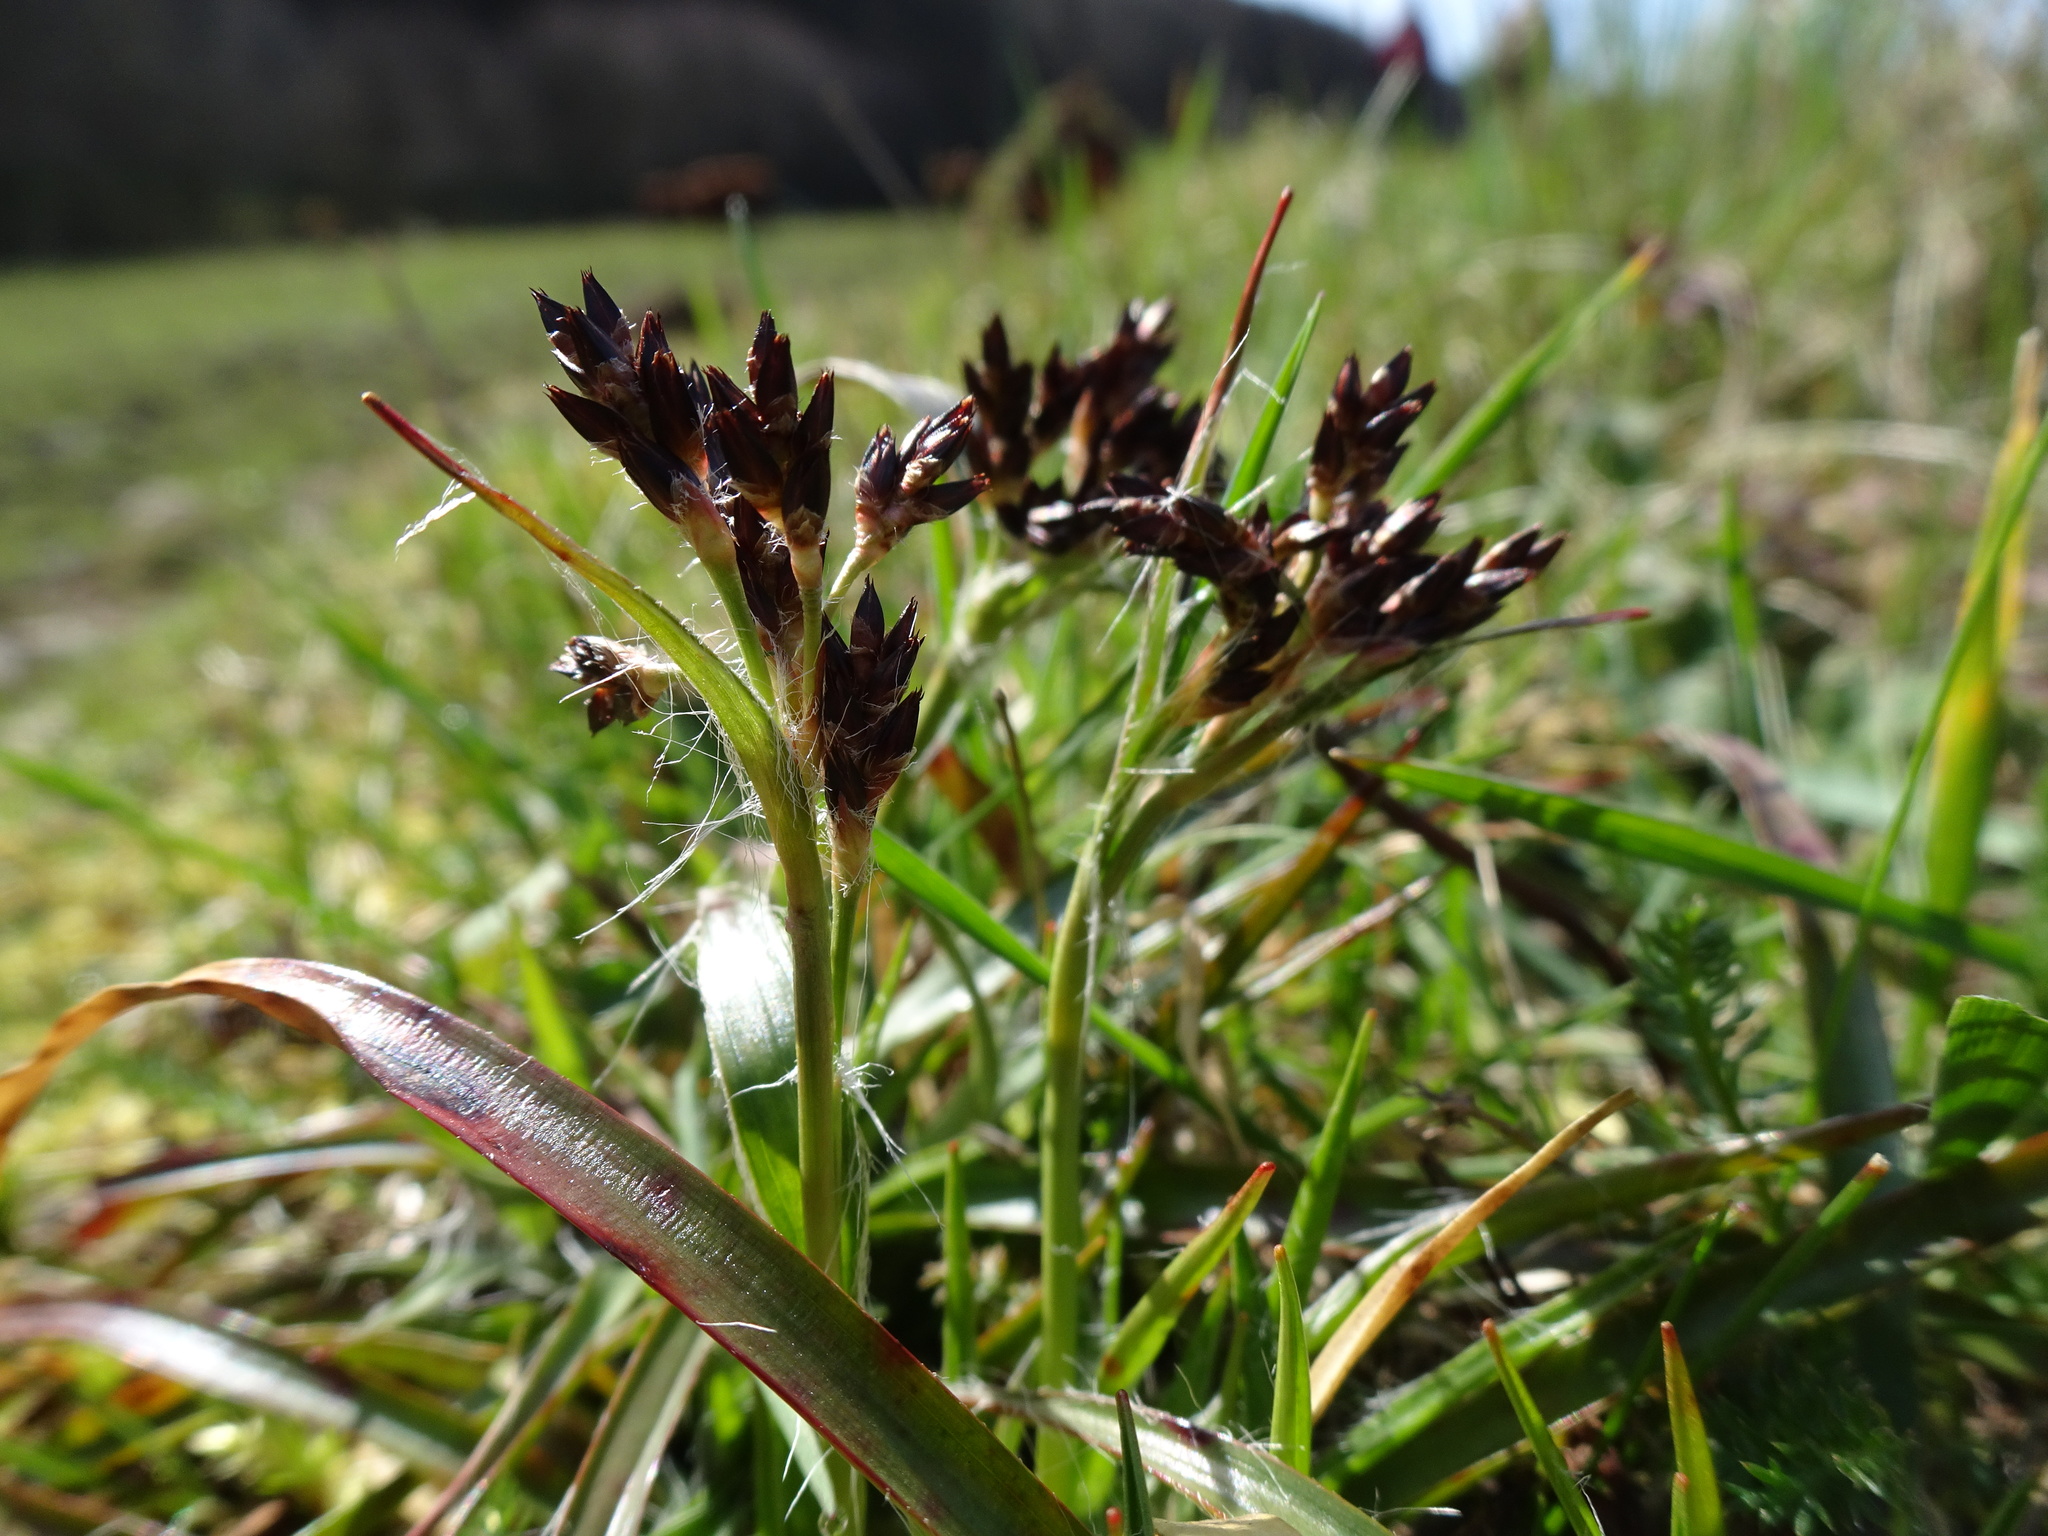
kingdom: Plantae
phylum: Tracheophyta
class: Liliopsida
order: Poales
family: Juncaceae
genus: Luzula
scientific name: Luzula campestris
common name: Field wood-rush
